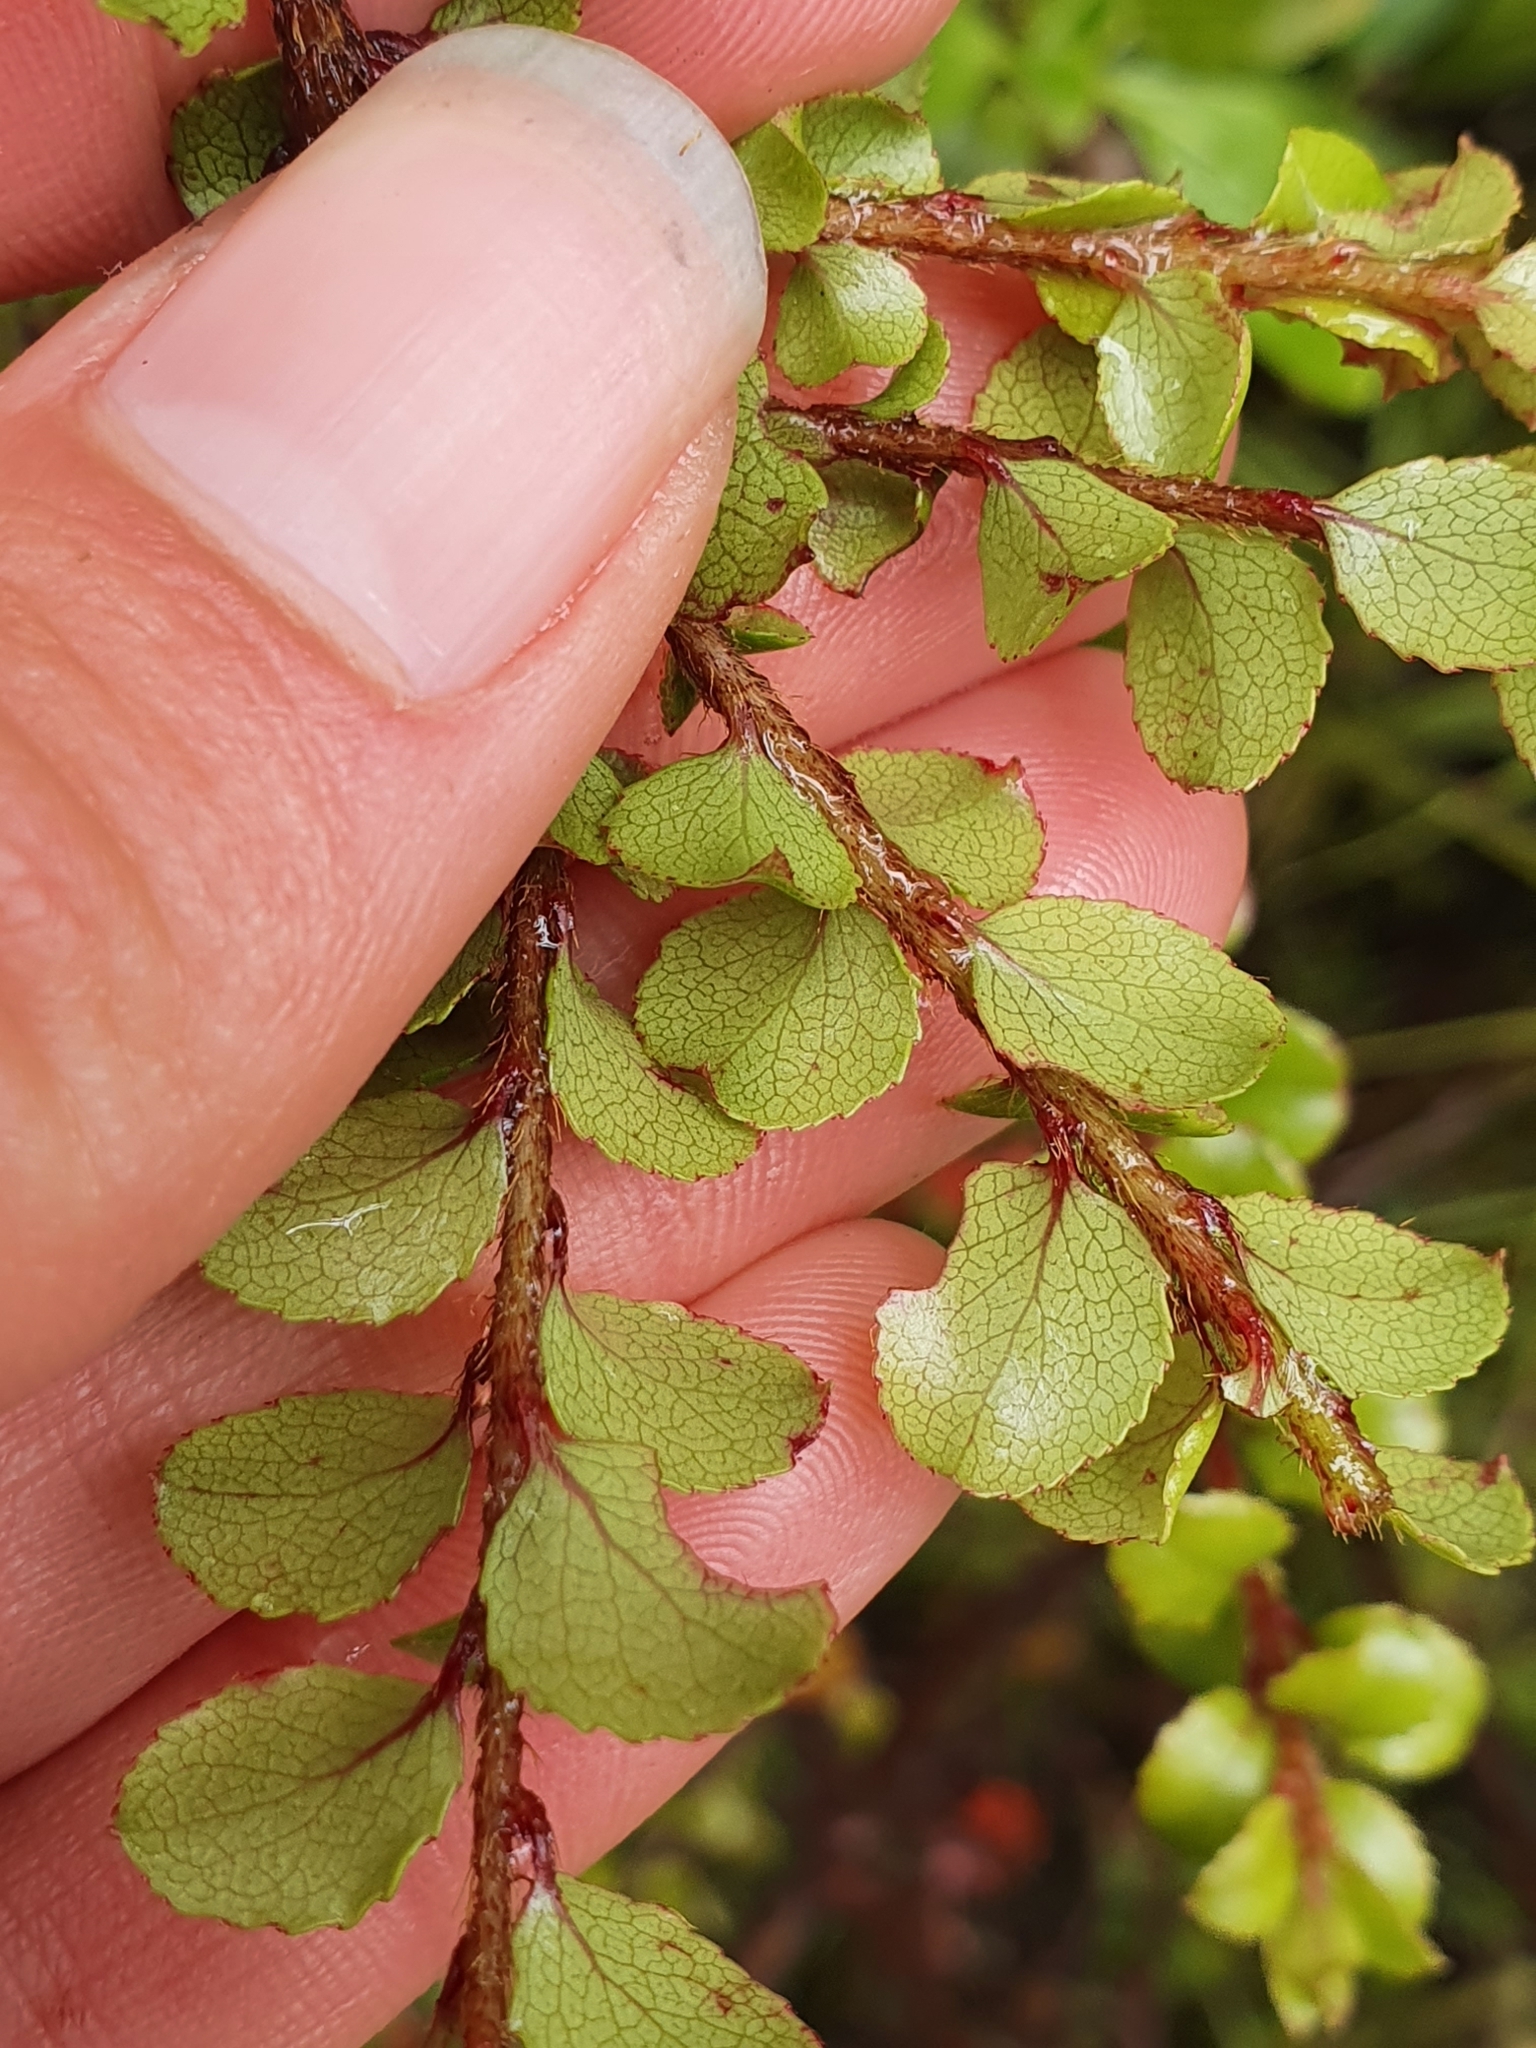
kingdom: Plantae
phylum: Tracheophyta
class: Magnoliopsida
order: Ericales
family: Ericaceae
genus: Gaultheria
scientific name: Gaultheria antipoda
